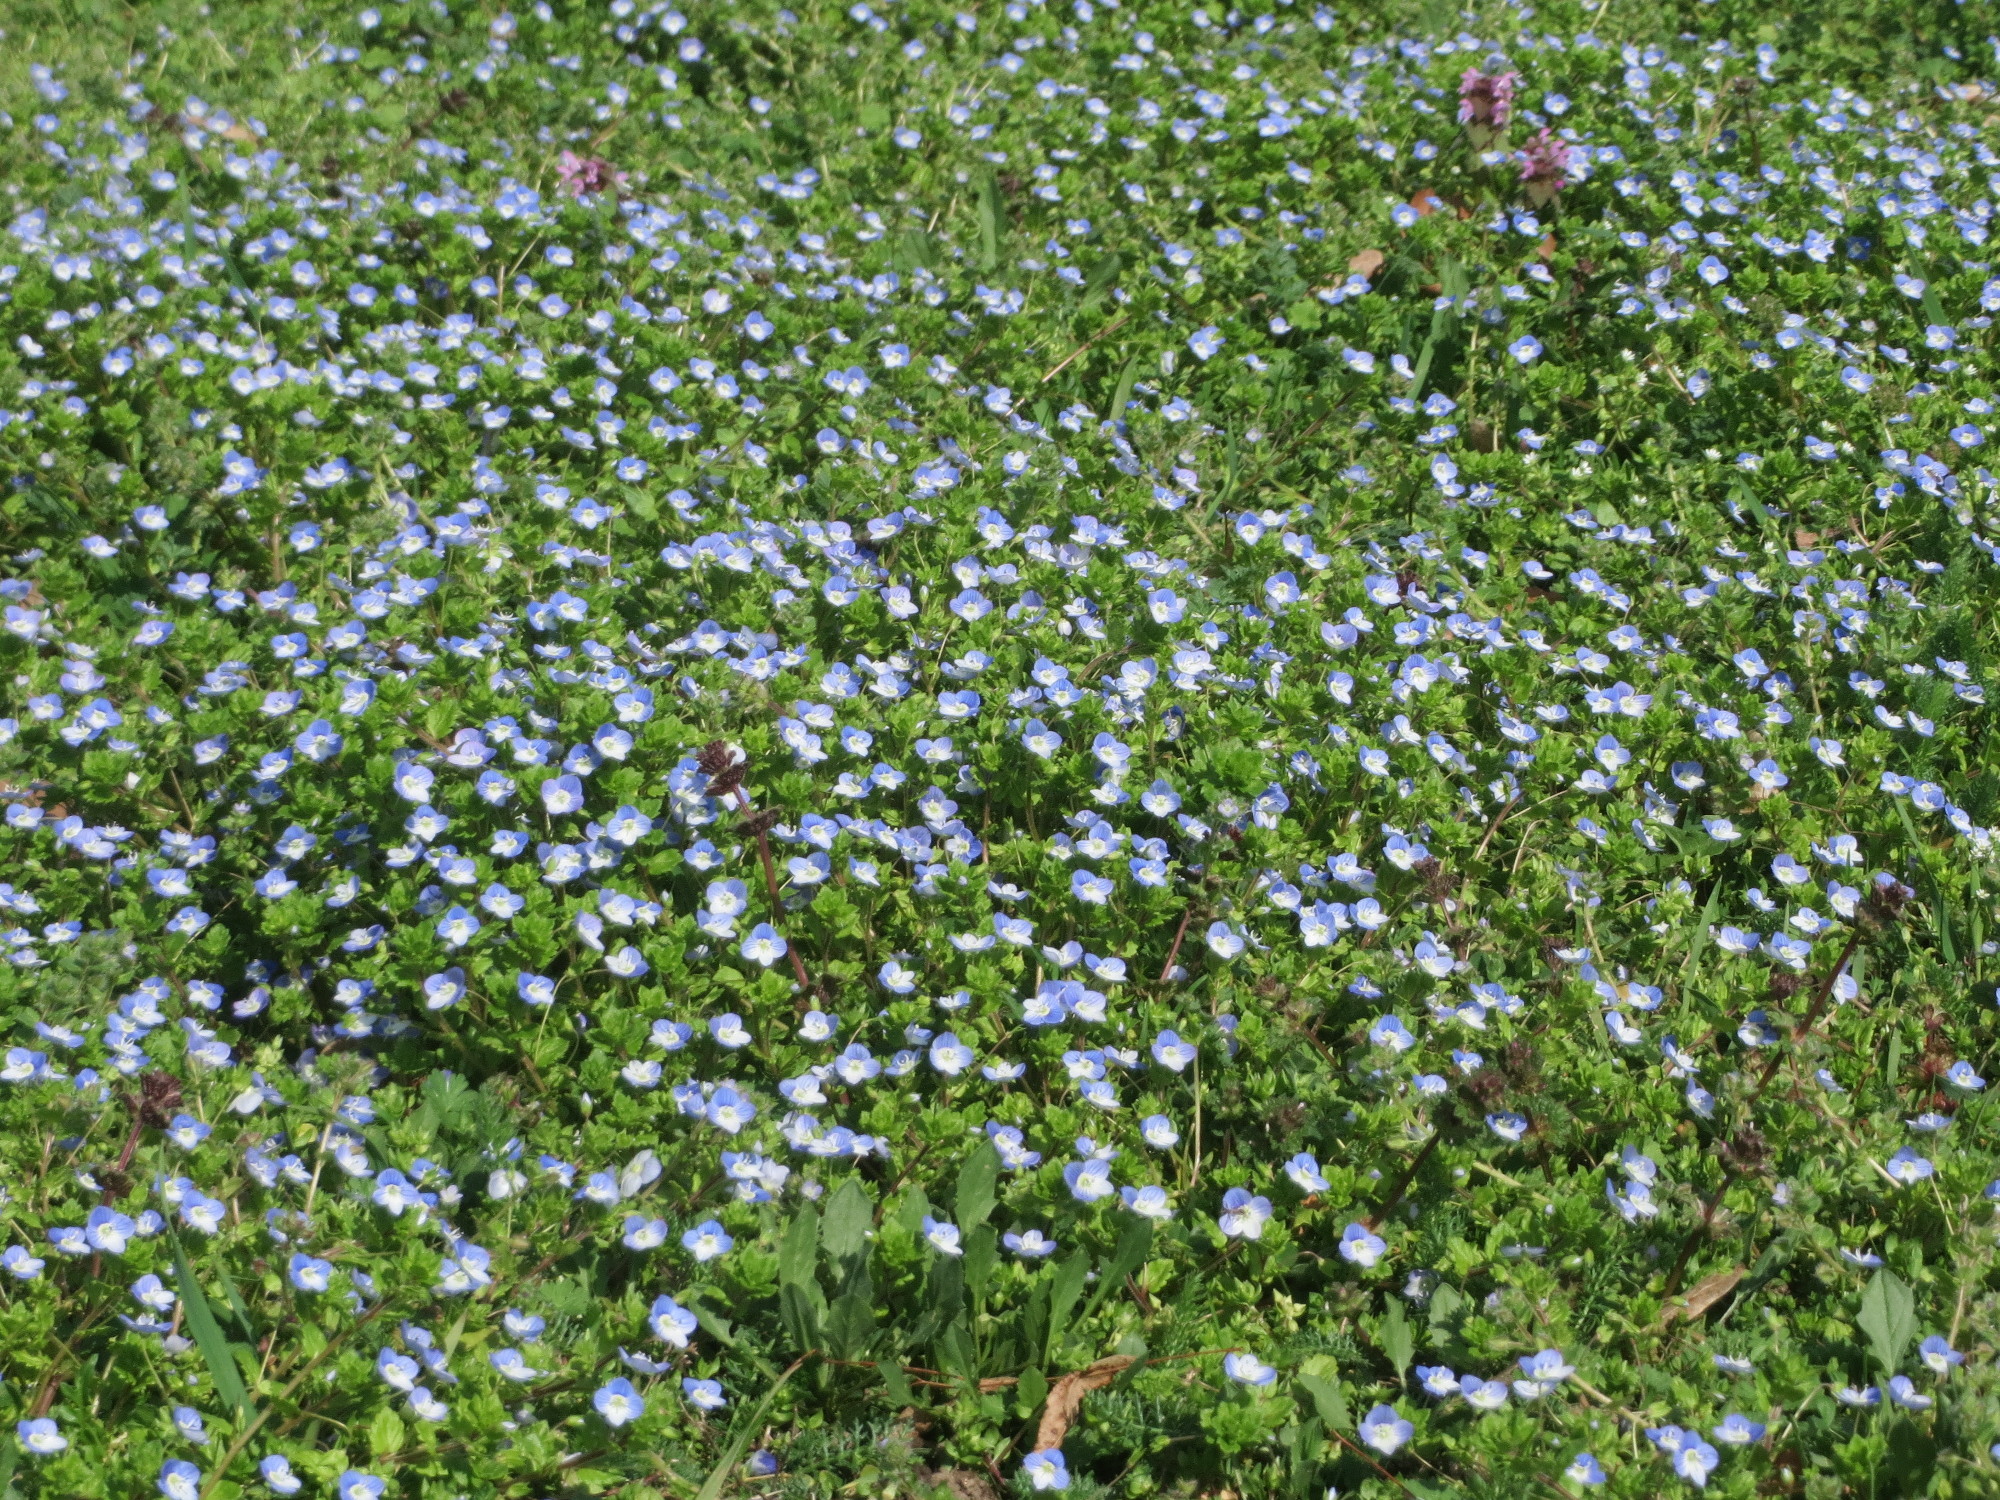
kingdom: Plantae
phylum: Tracheophyta
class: Magnoliopsida
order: Lamiales
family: Plantaginaceae
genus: Veronica
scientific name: Veronica persica
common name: Common field-speedwell
